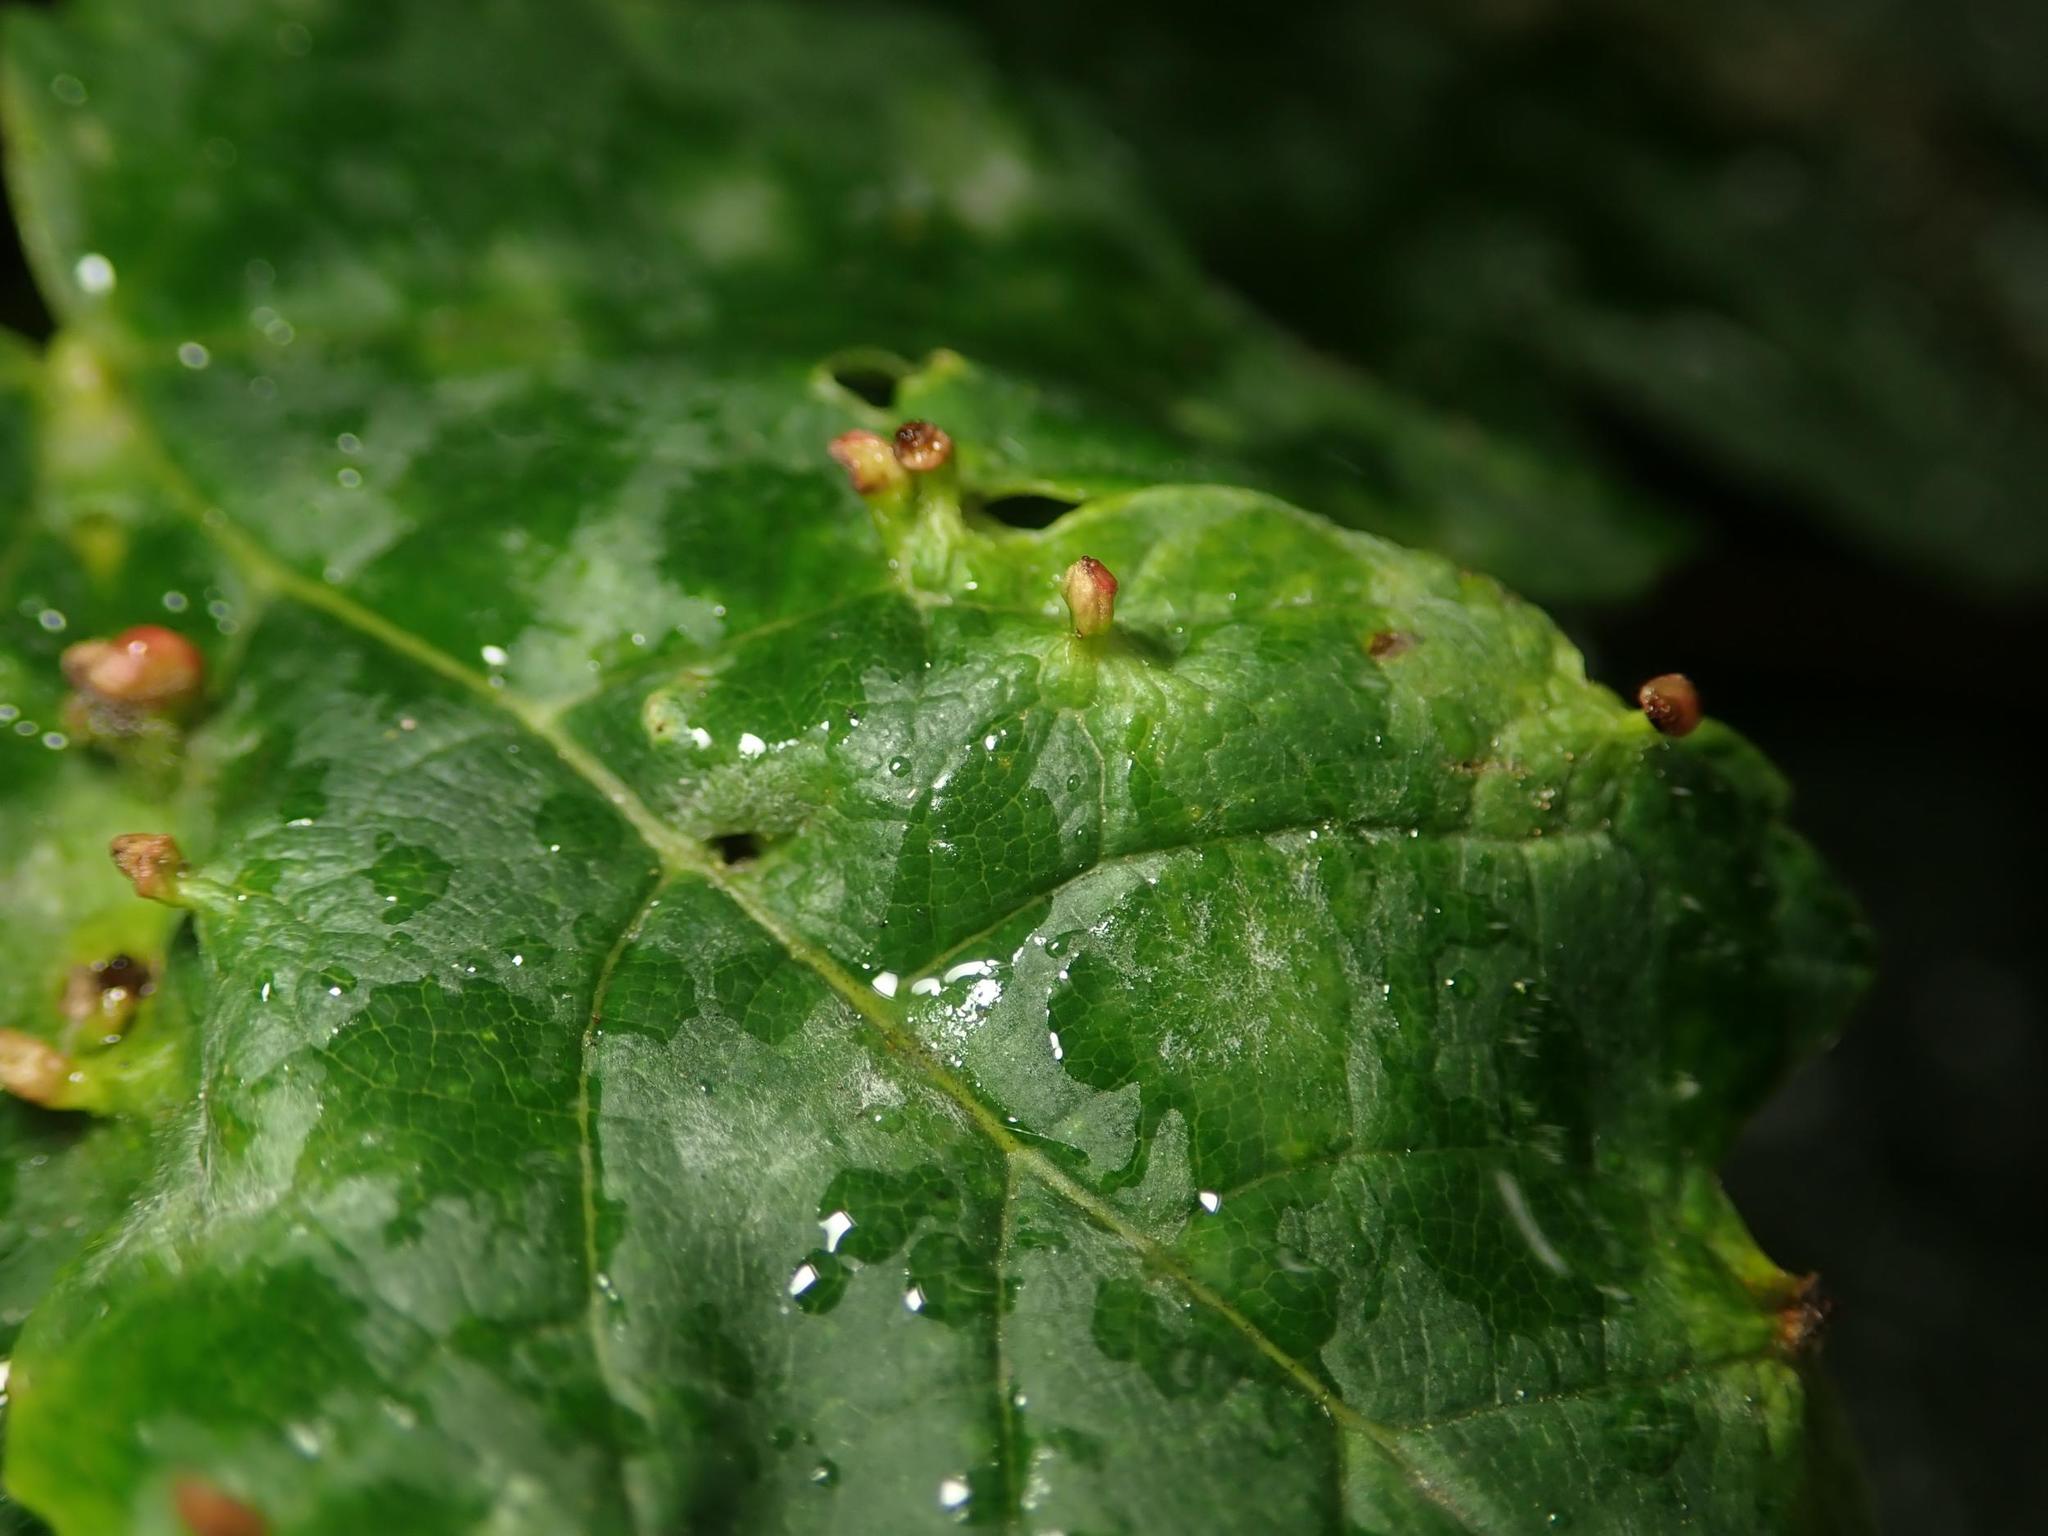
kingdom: Animalia
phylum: Arthropoda
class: Arachnida
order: Trombidiformes
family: Eriophyidae
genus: Aceria
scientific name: Aceria cephaloneus
